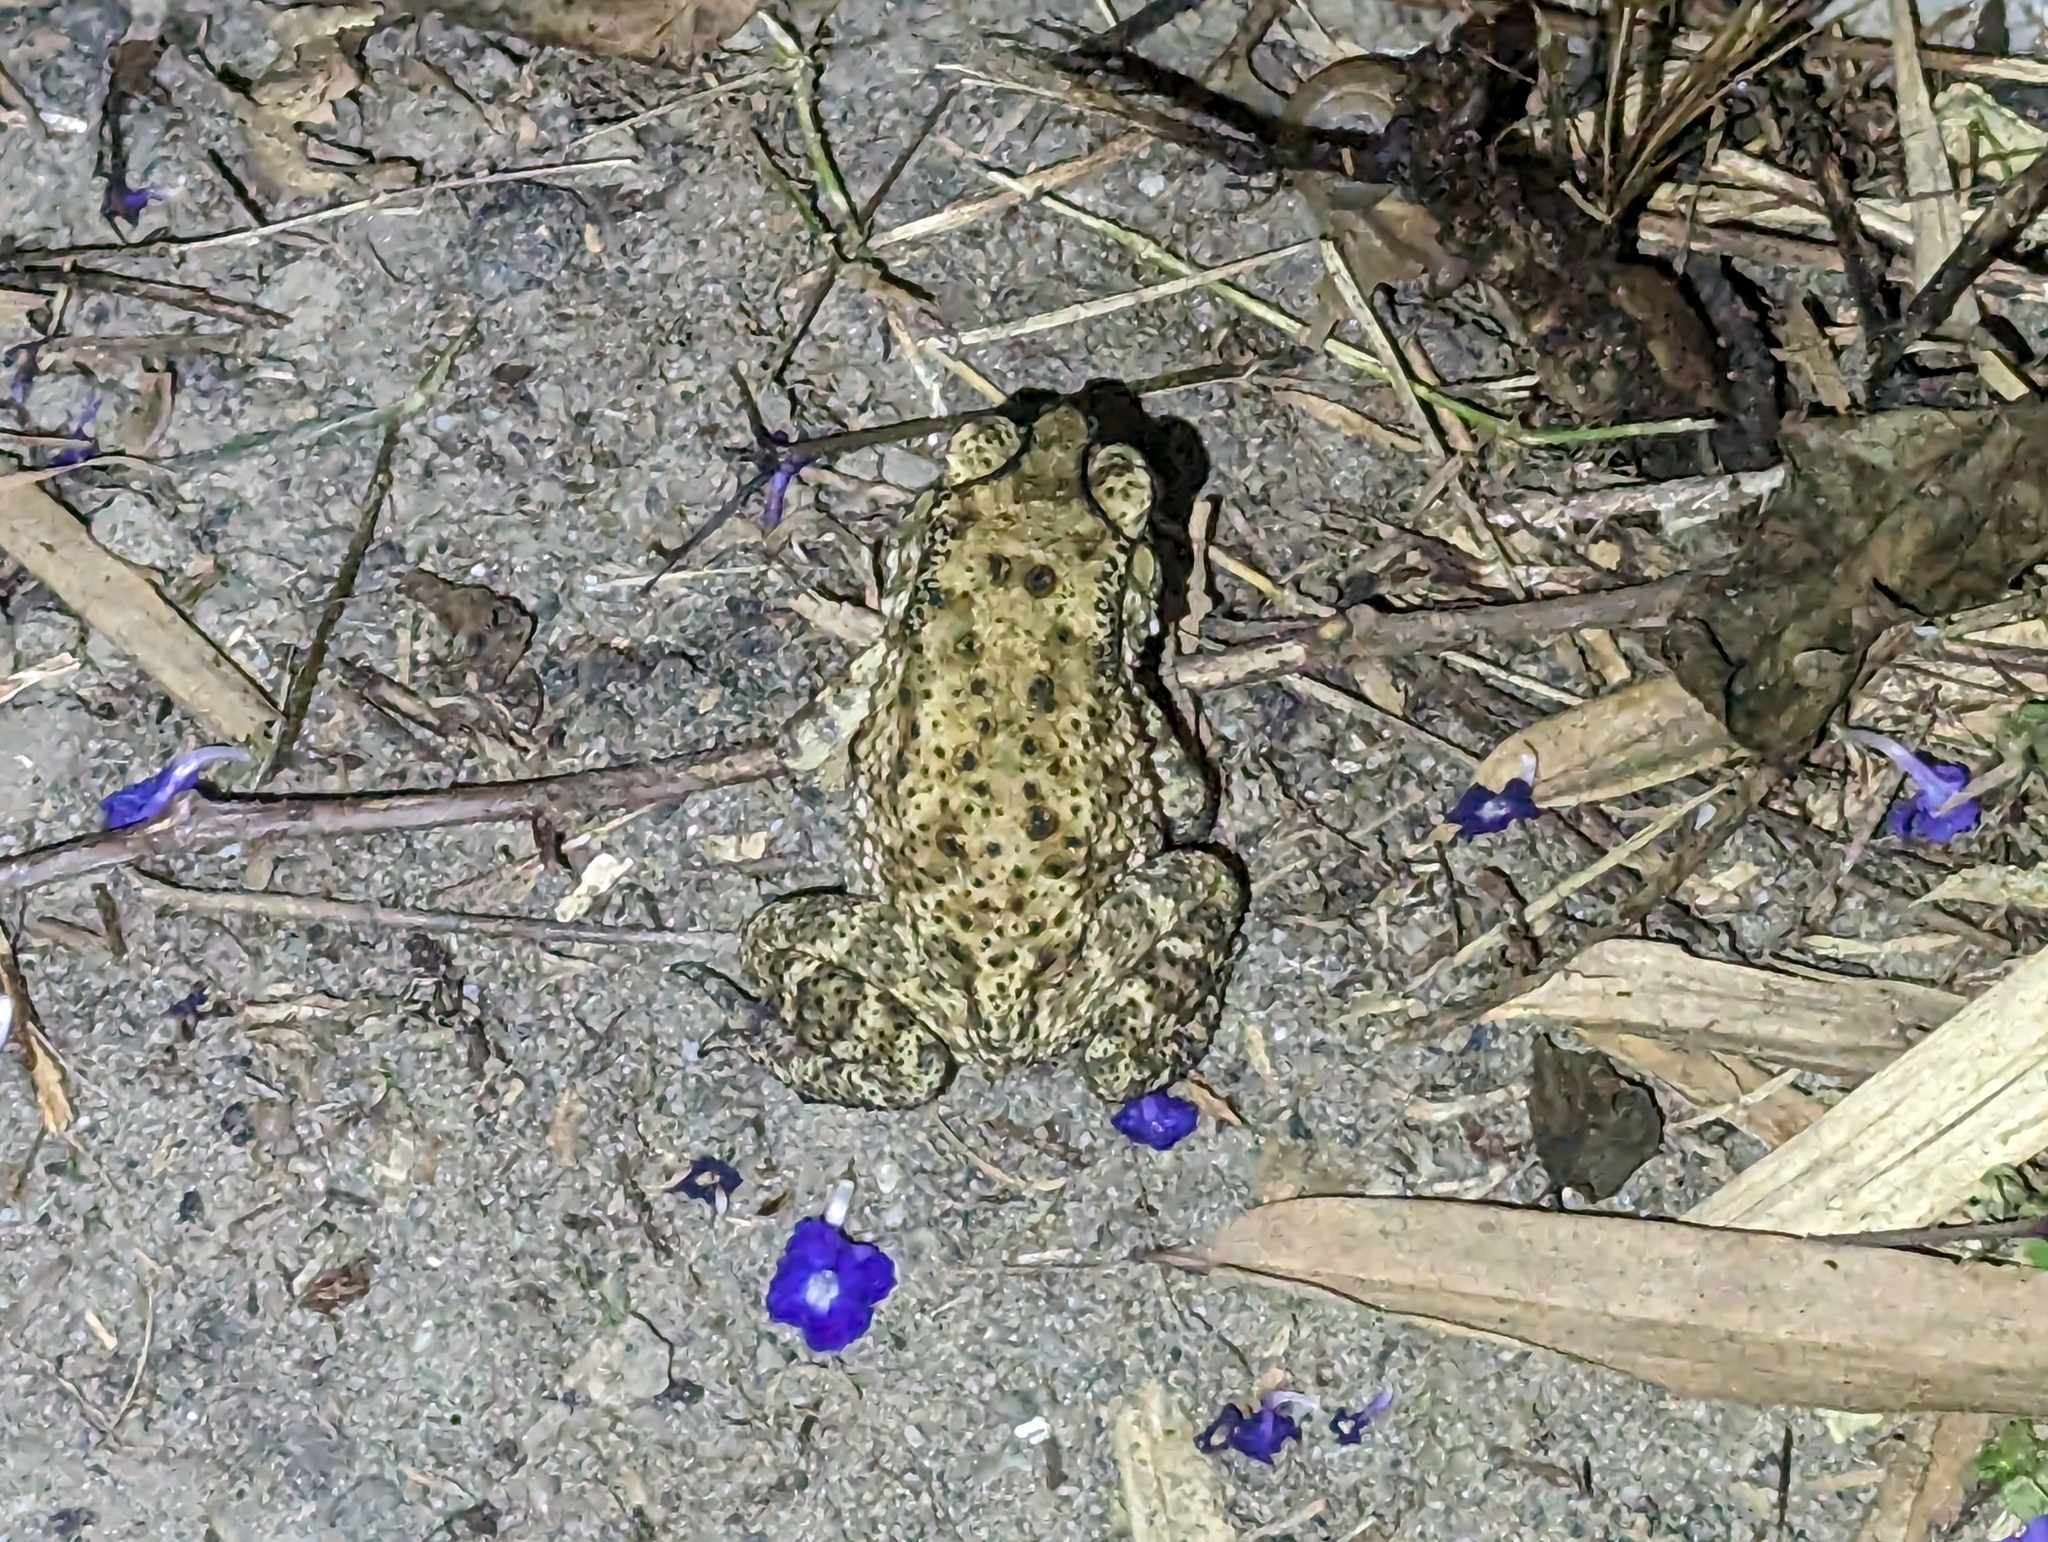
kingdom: Animalia
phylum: Chordata
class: Amphibia
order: Anura
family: Bufonidae
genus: Duttaphrynus
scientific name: Duttaphrynus melanostictus
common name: Common sunda toad
